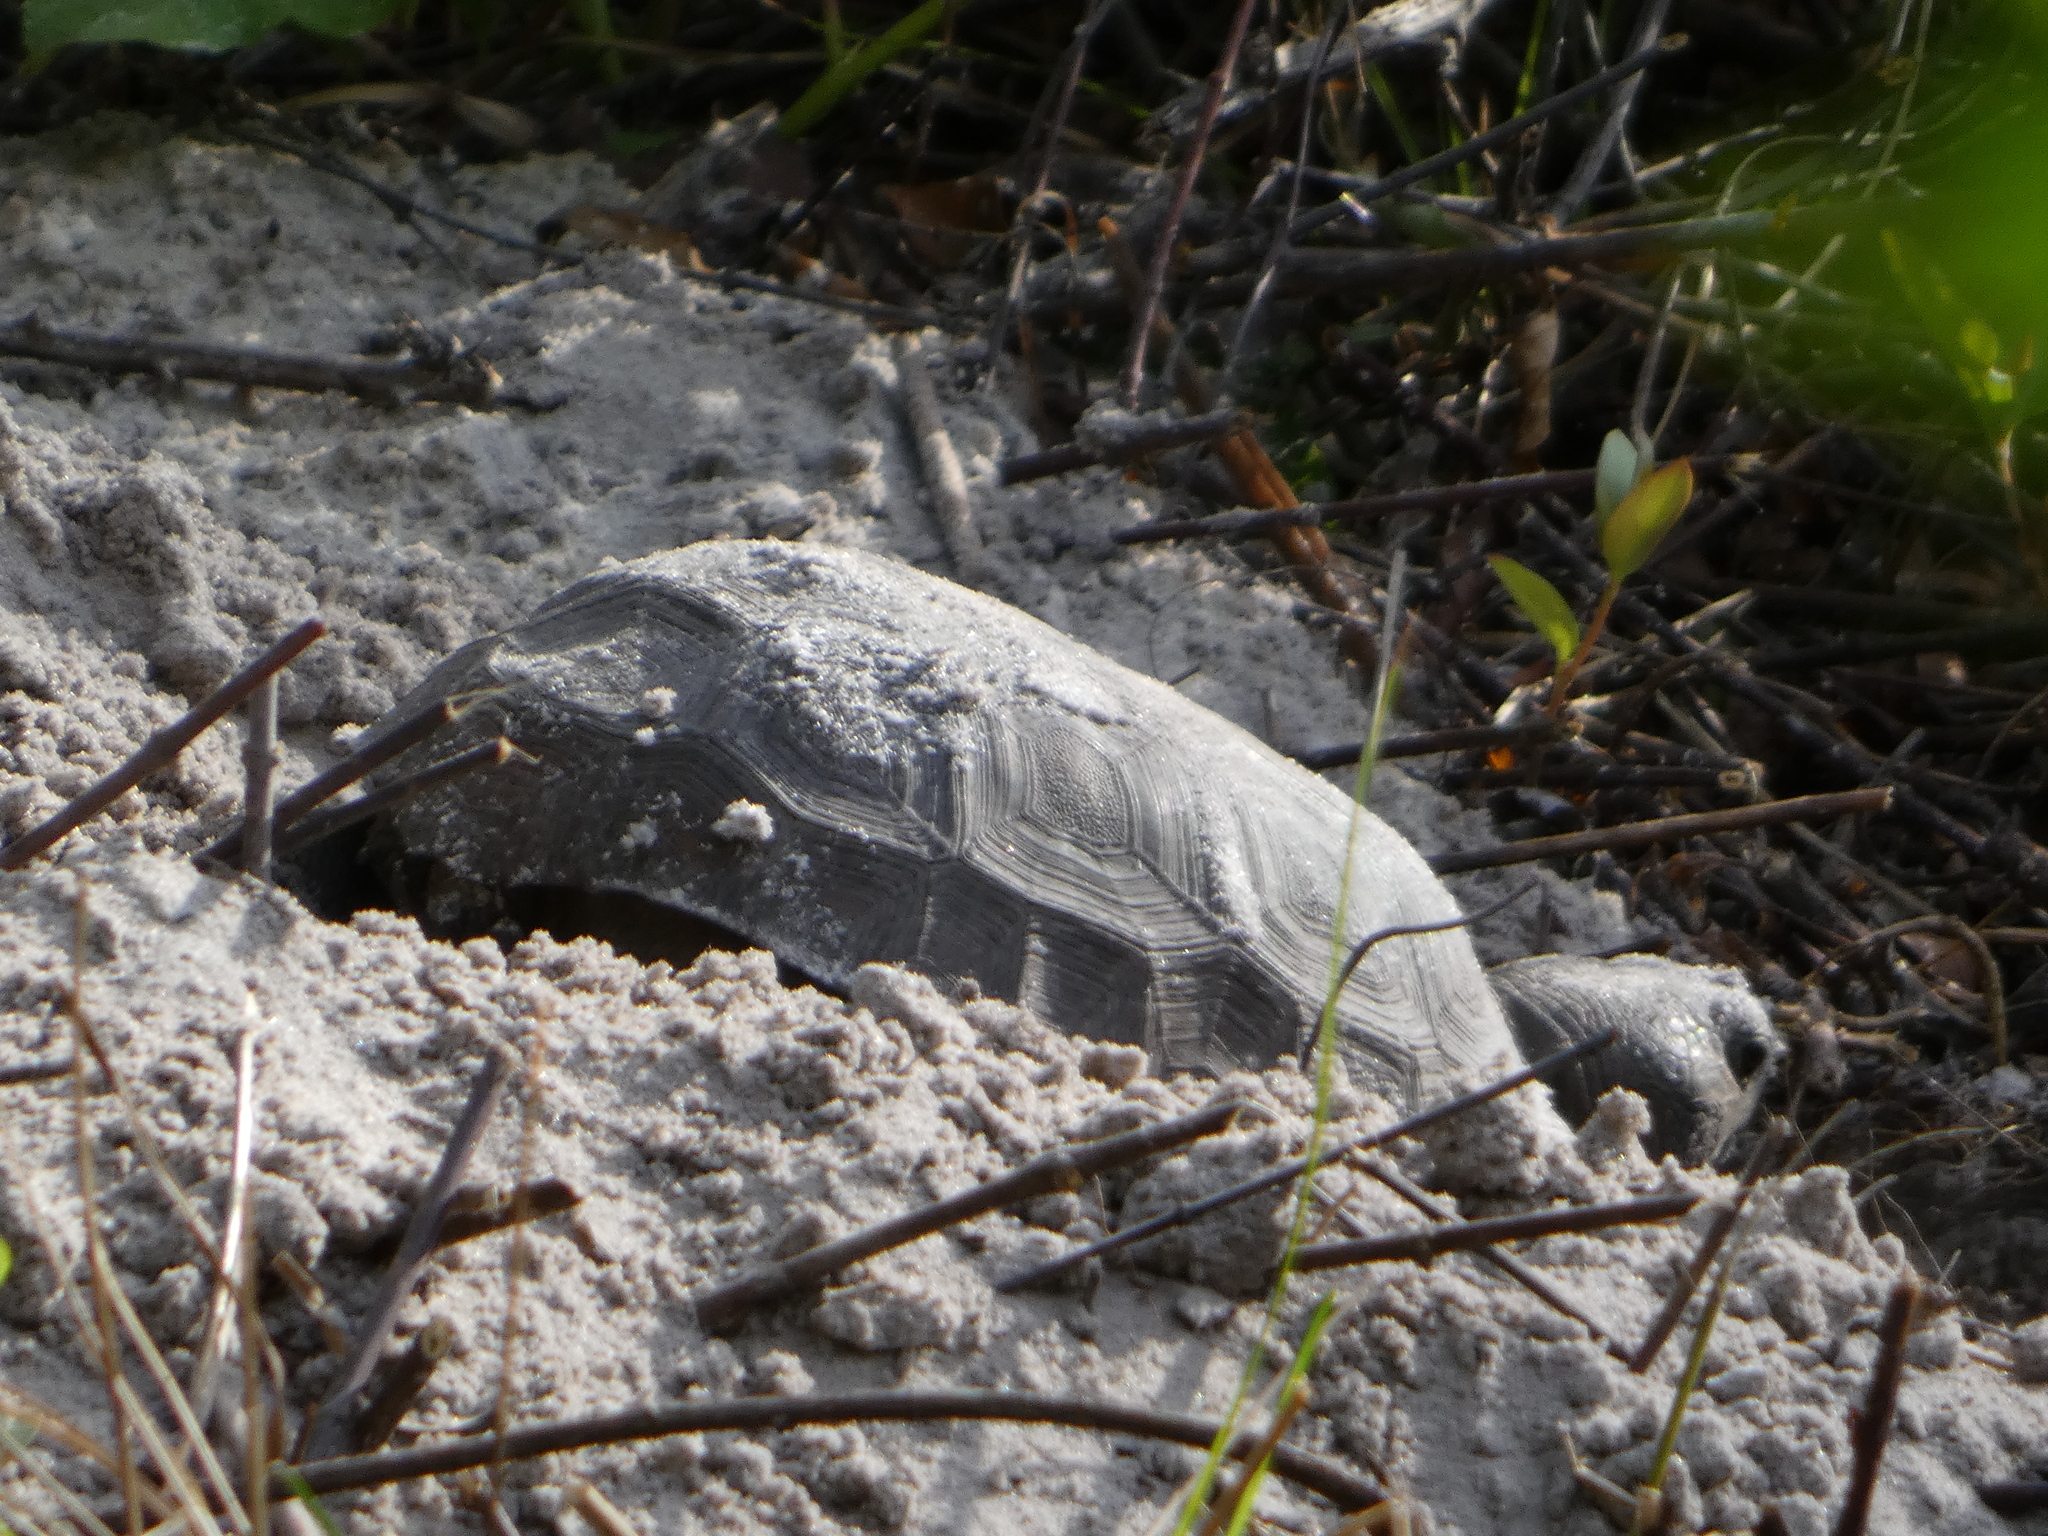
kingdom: Animalia
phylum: Chordata
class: Testudines
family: Testudinidae
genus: Gopherus
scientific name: Gopherus polyphemus
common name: Florida gopher tortoise
